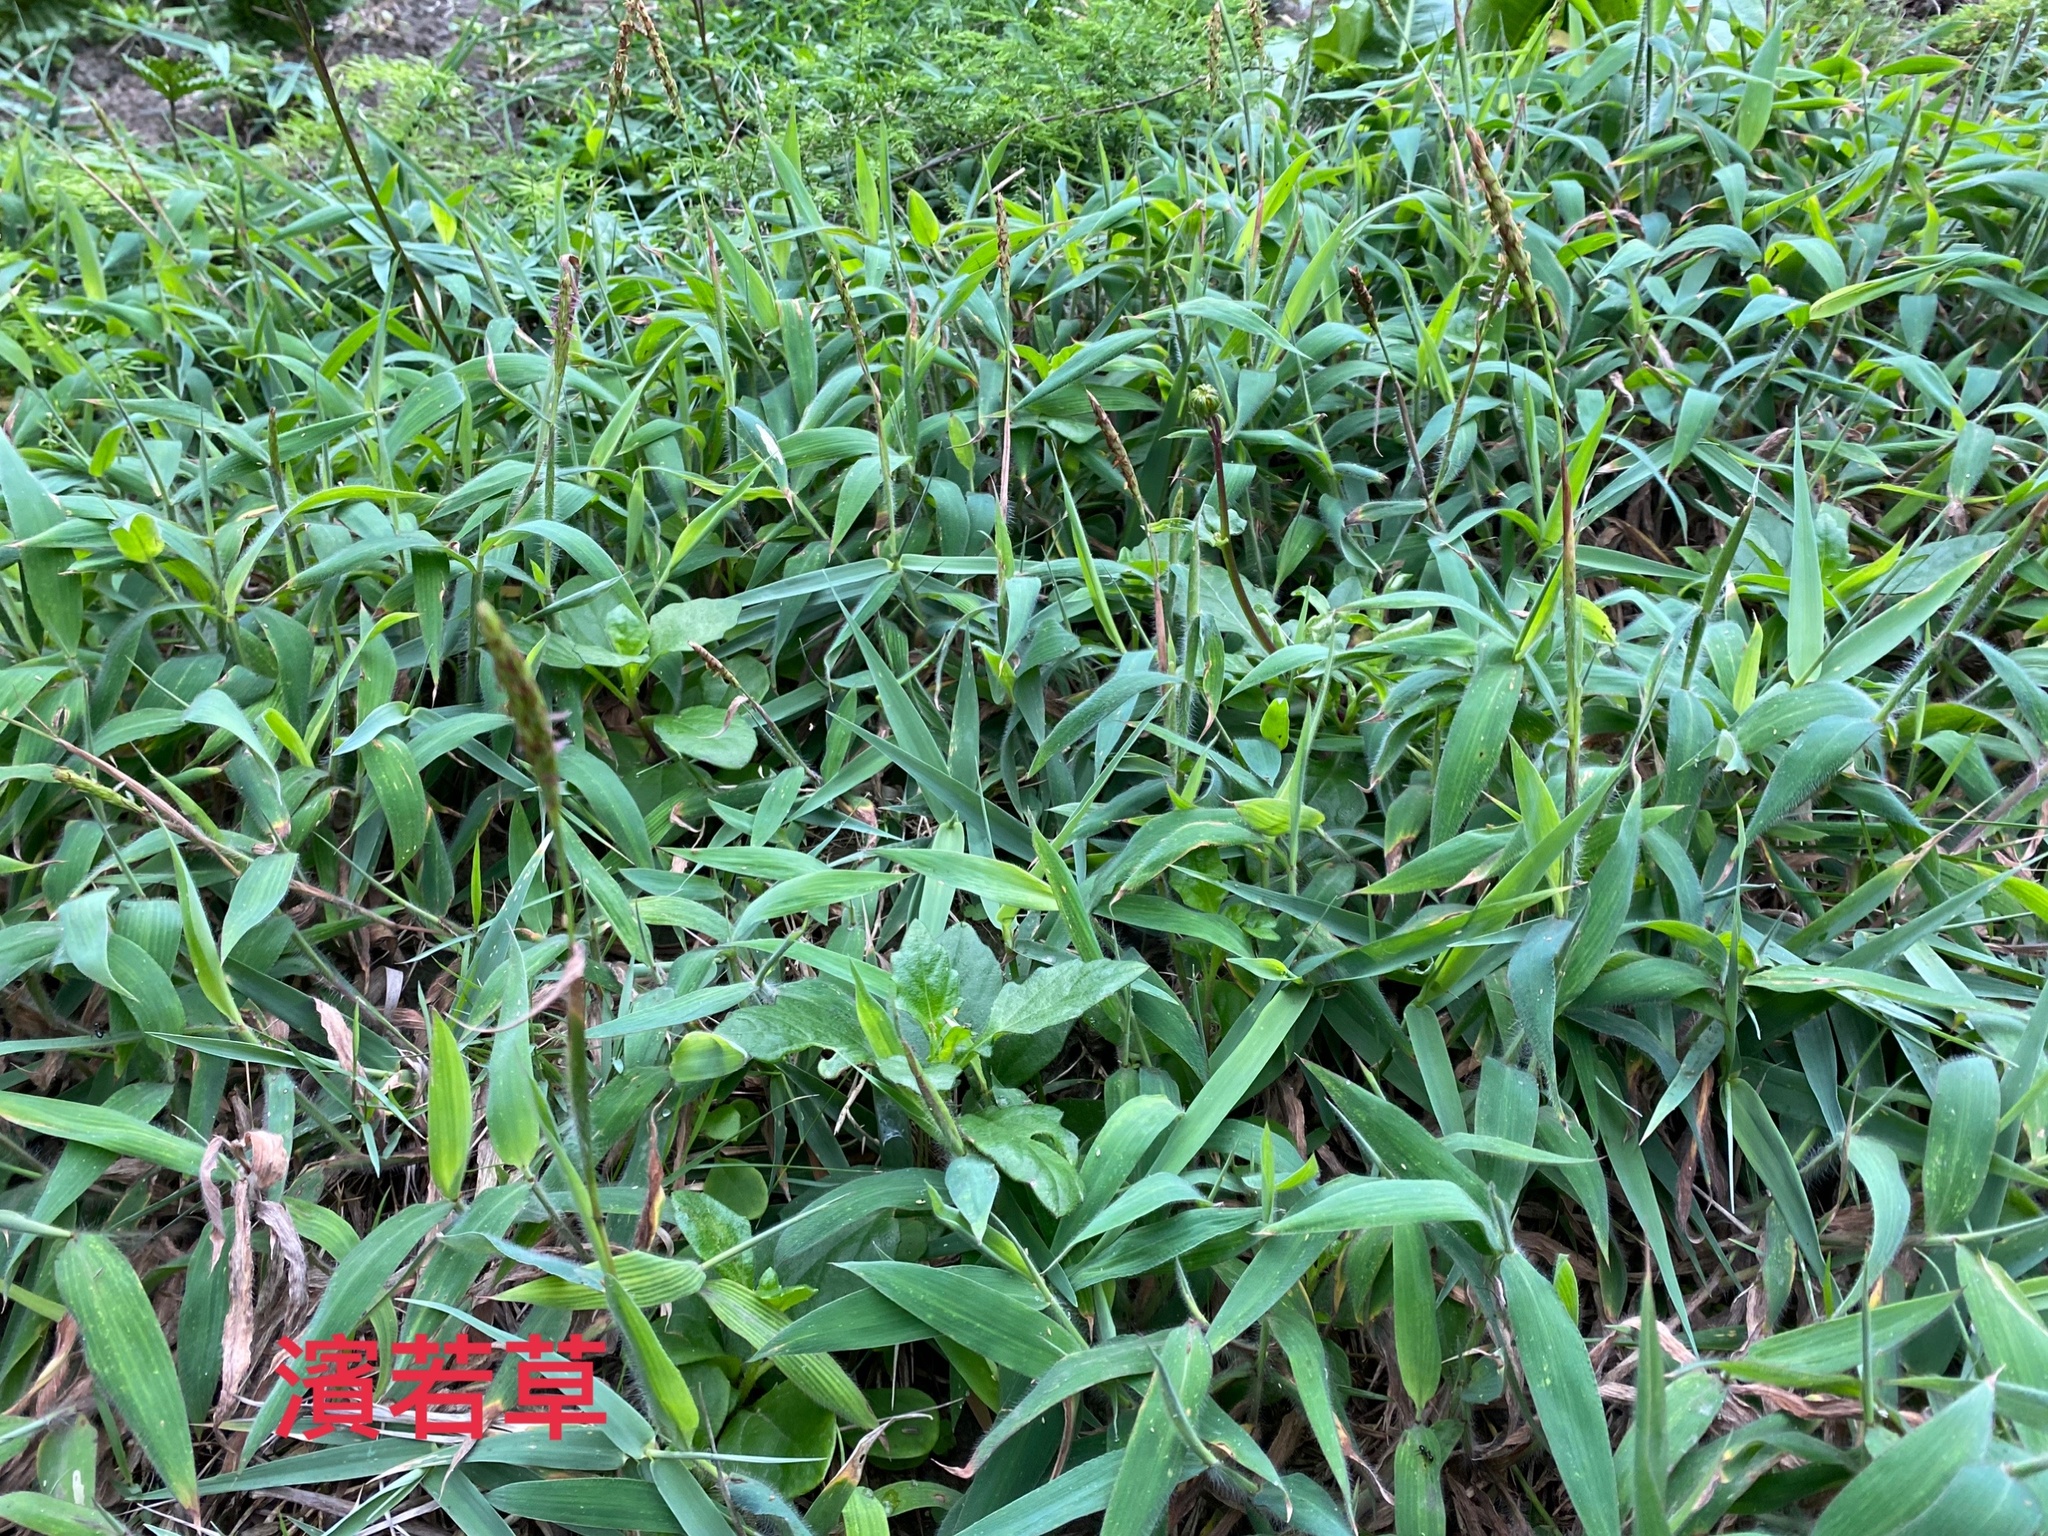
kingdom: Plantae
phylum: Tracheophyta
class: Liliopsida
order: Poales
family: Poaceae
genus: Ischaemum
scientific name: Ischaemum ciliare
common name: Grass
